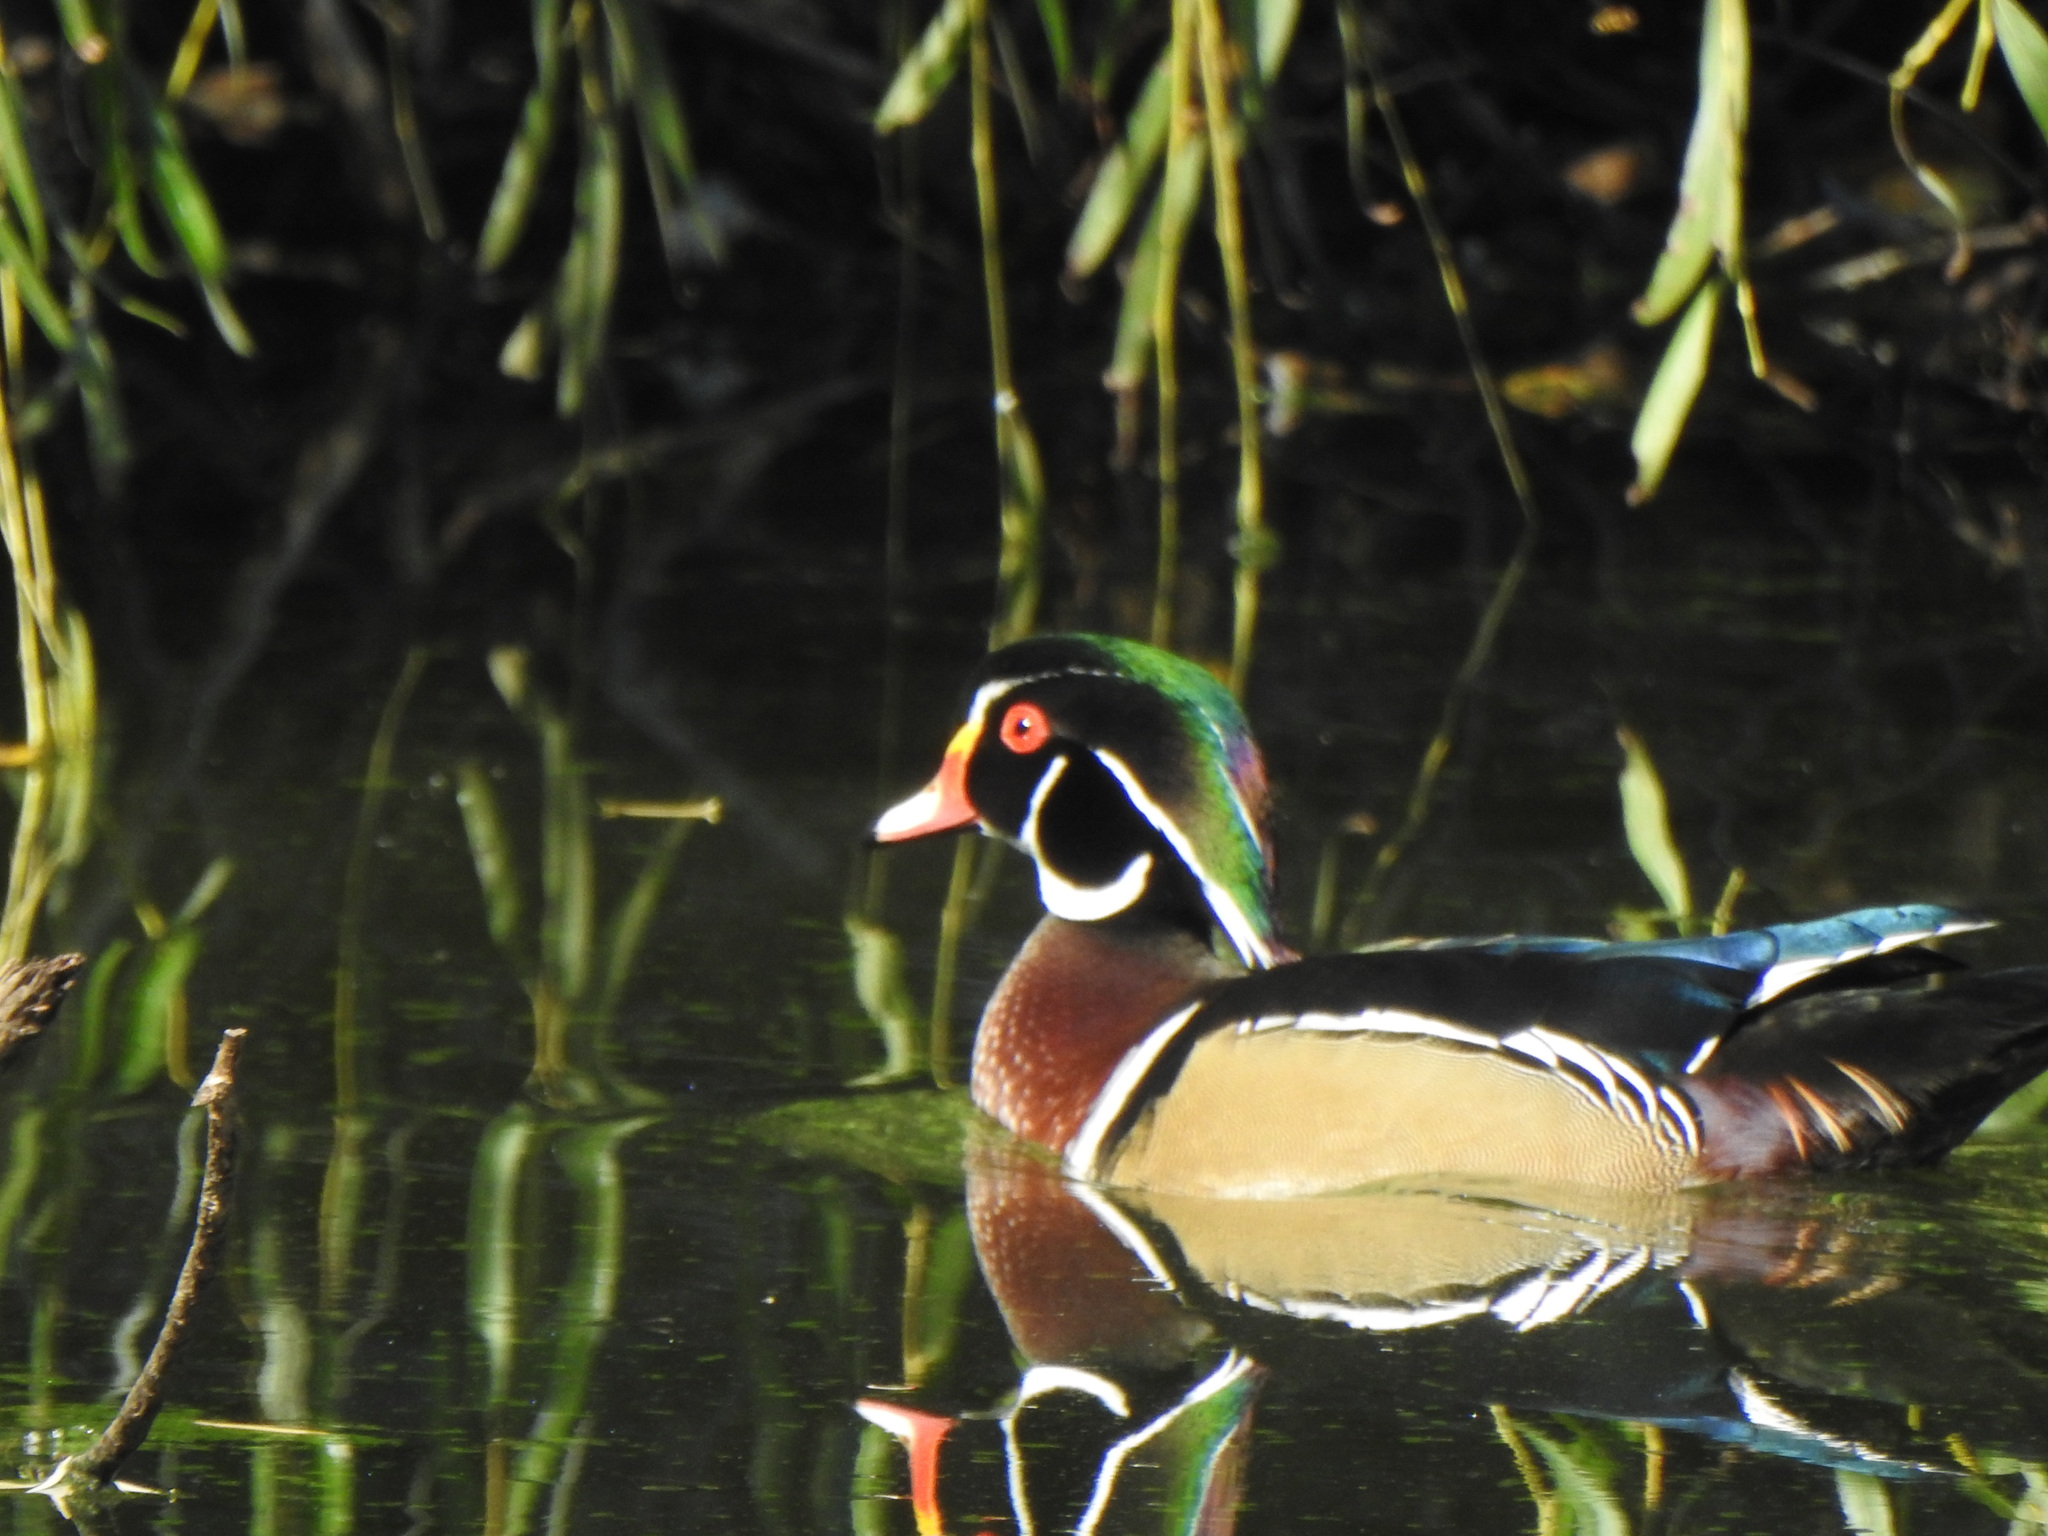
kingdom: Animalia
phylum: Chordata
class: Aves
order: Anseriformes
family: Anatidae
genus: Aix
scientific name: Aix sponsa
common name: Wood duck
